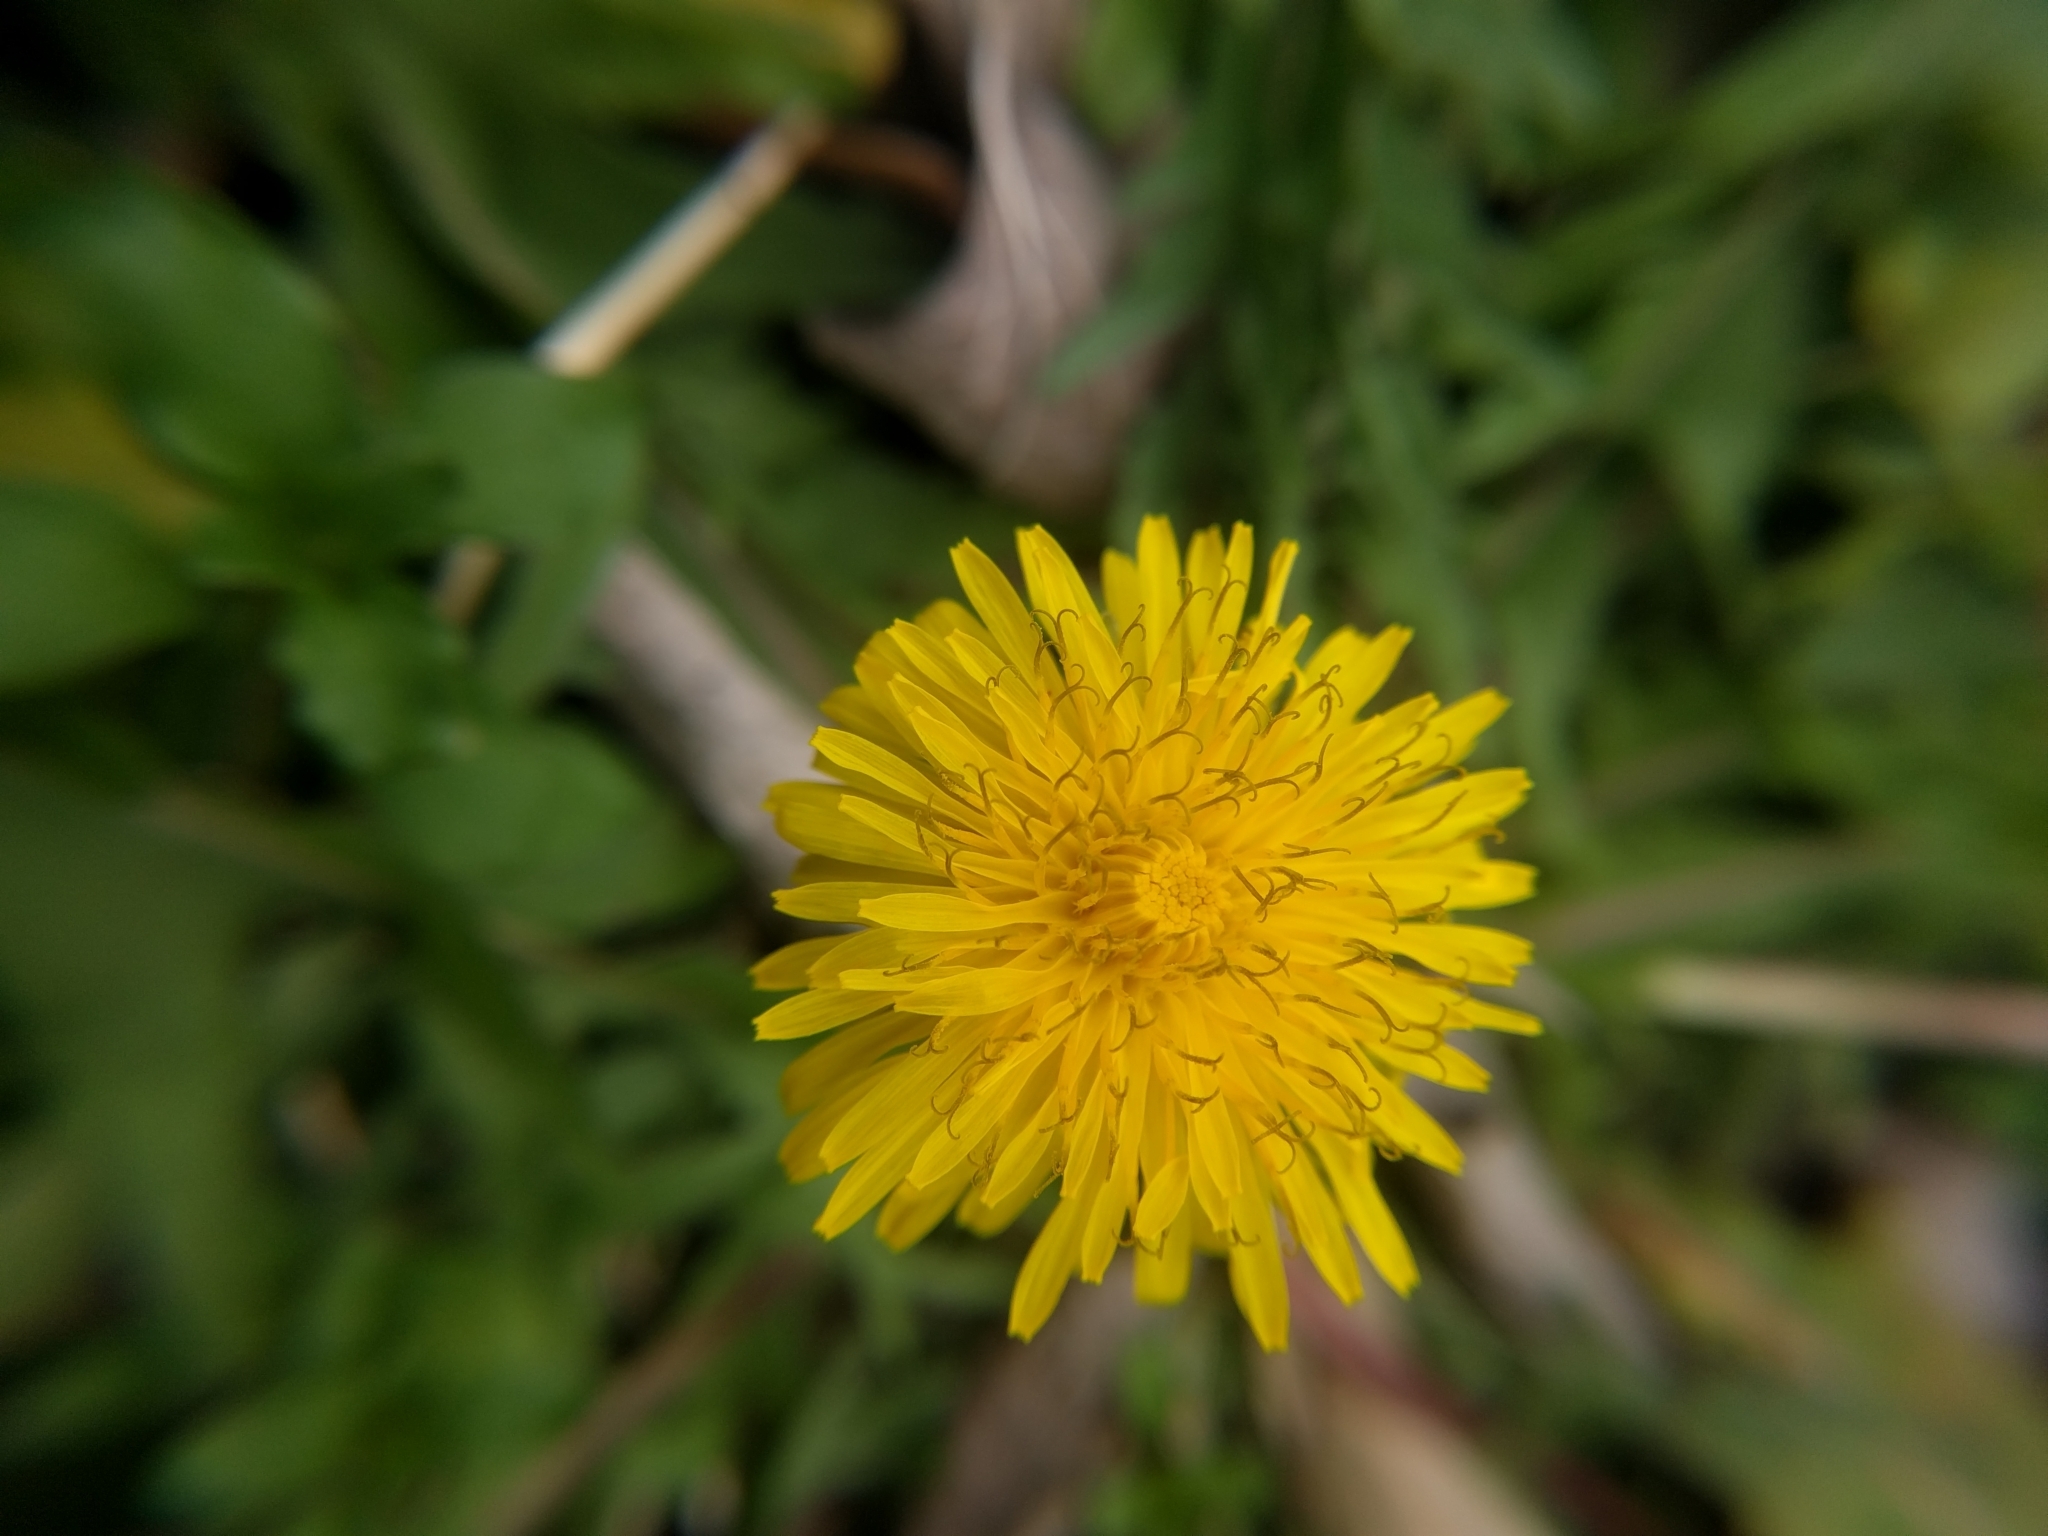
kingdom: Plantae
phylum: Tracheophyta
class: Magnoliopsida
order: Asterales
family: Asteraceae
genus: Taraxacum
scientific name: Taraxacum officinale
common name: Common dandelion
